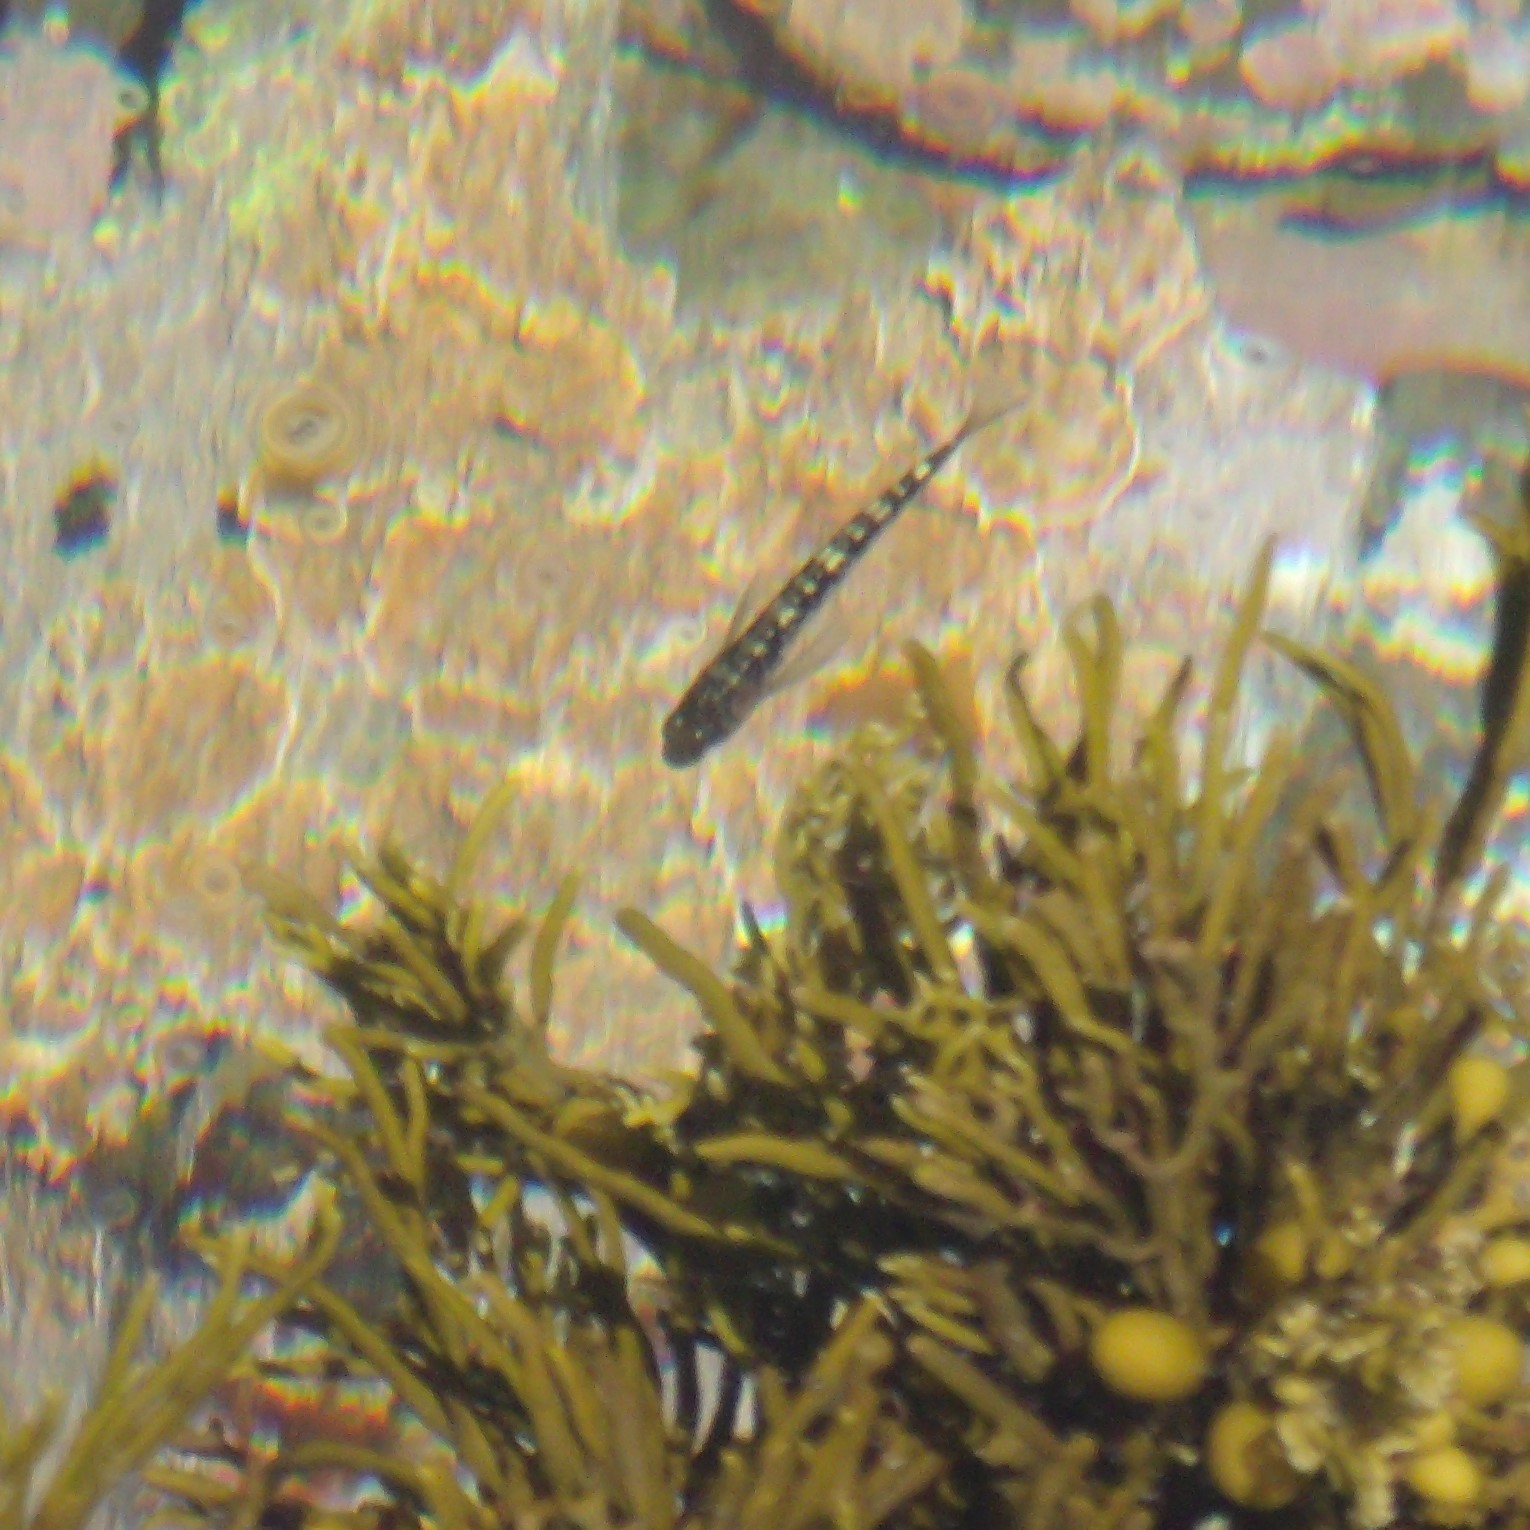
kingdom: Animalia
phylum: Chordata
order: Perciformes
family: Tripterygiidae
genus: Forsterygion
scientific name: Forsterygion varium
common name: Variable triplefin
